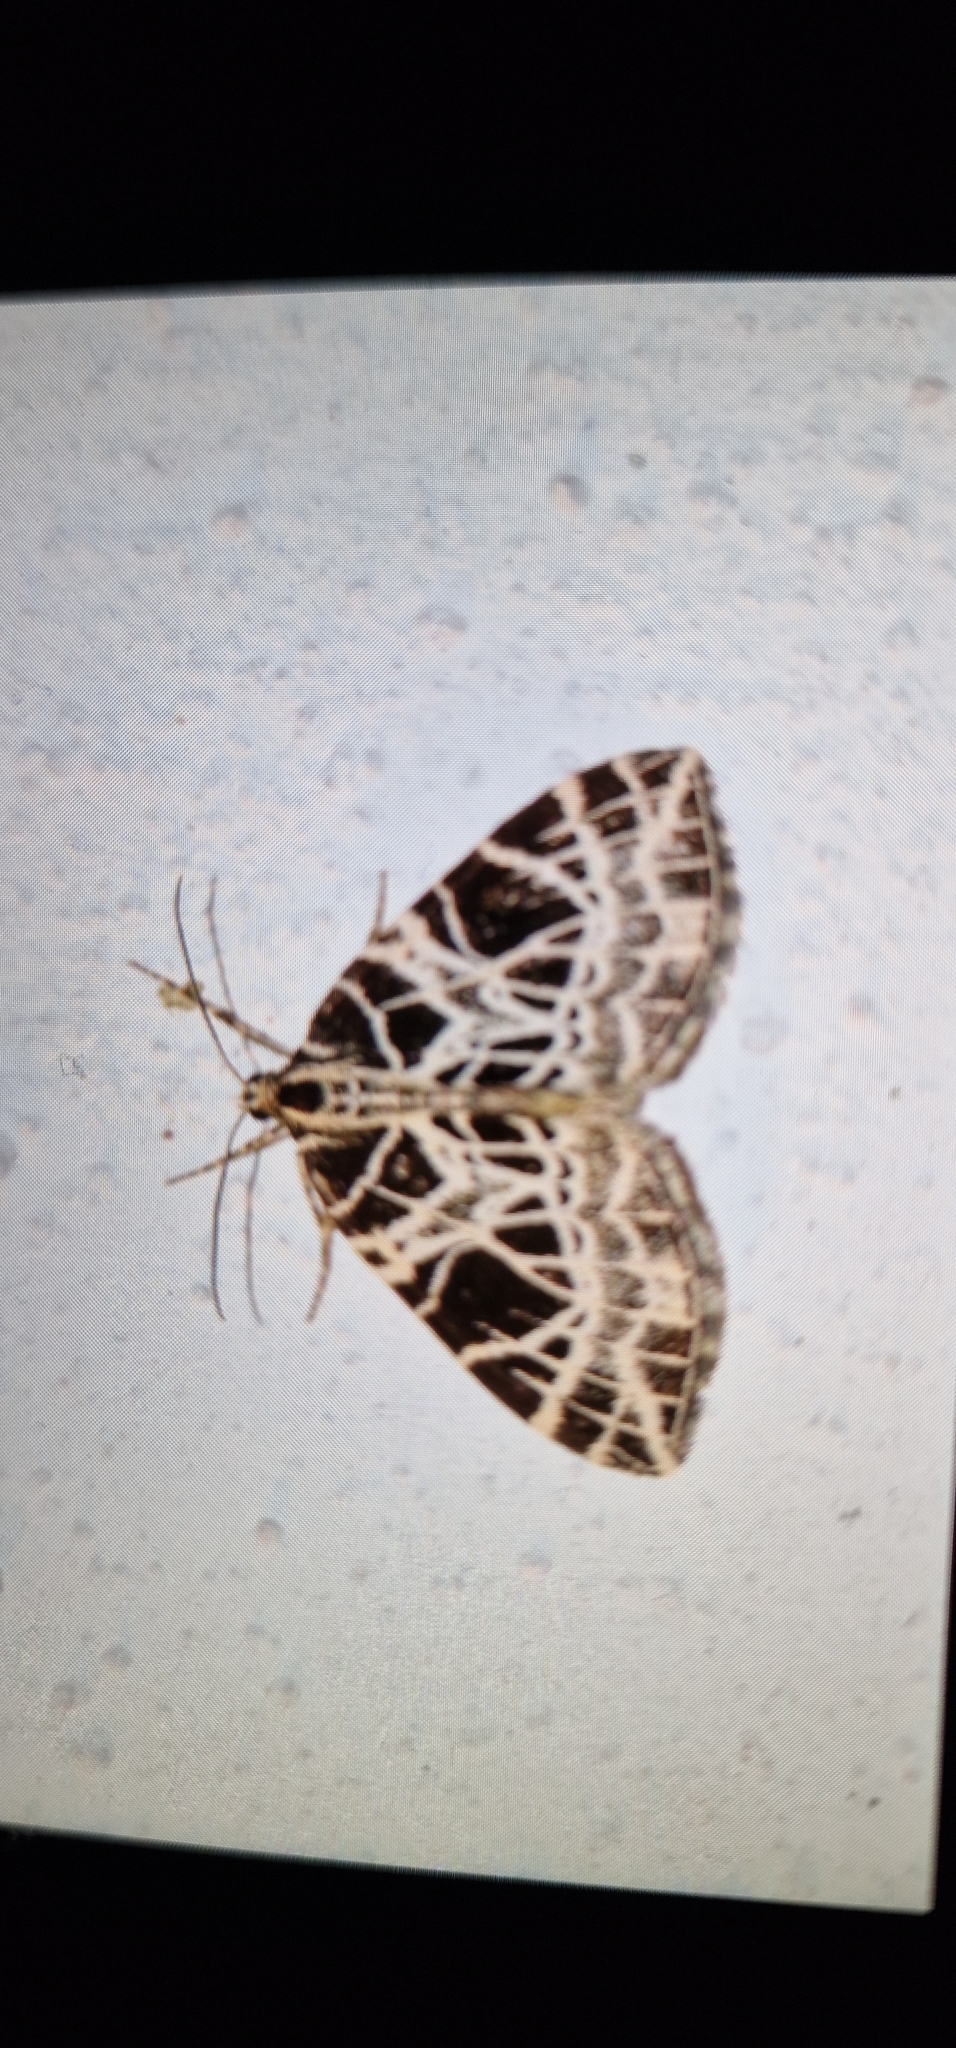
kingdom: Animalia
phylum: Arthropoda
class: Insecta
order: Lepidoptera
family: Geometridae
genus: Eustroma
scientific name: Eustroma reticulata
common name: Netted carpet
